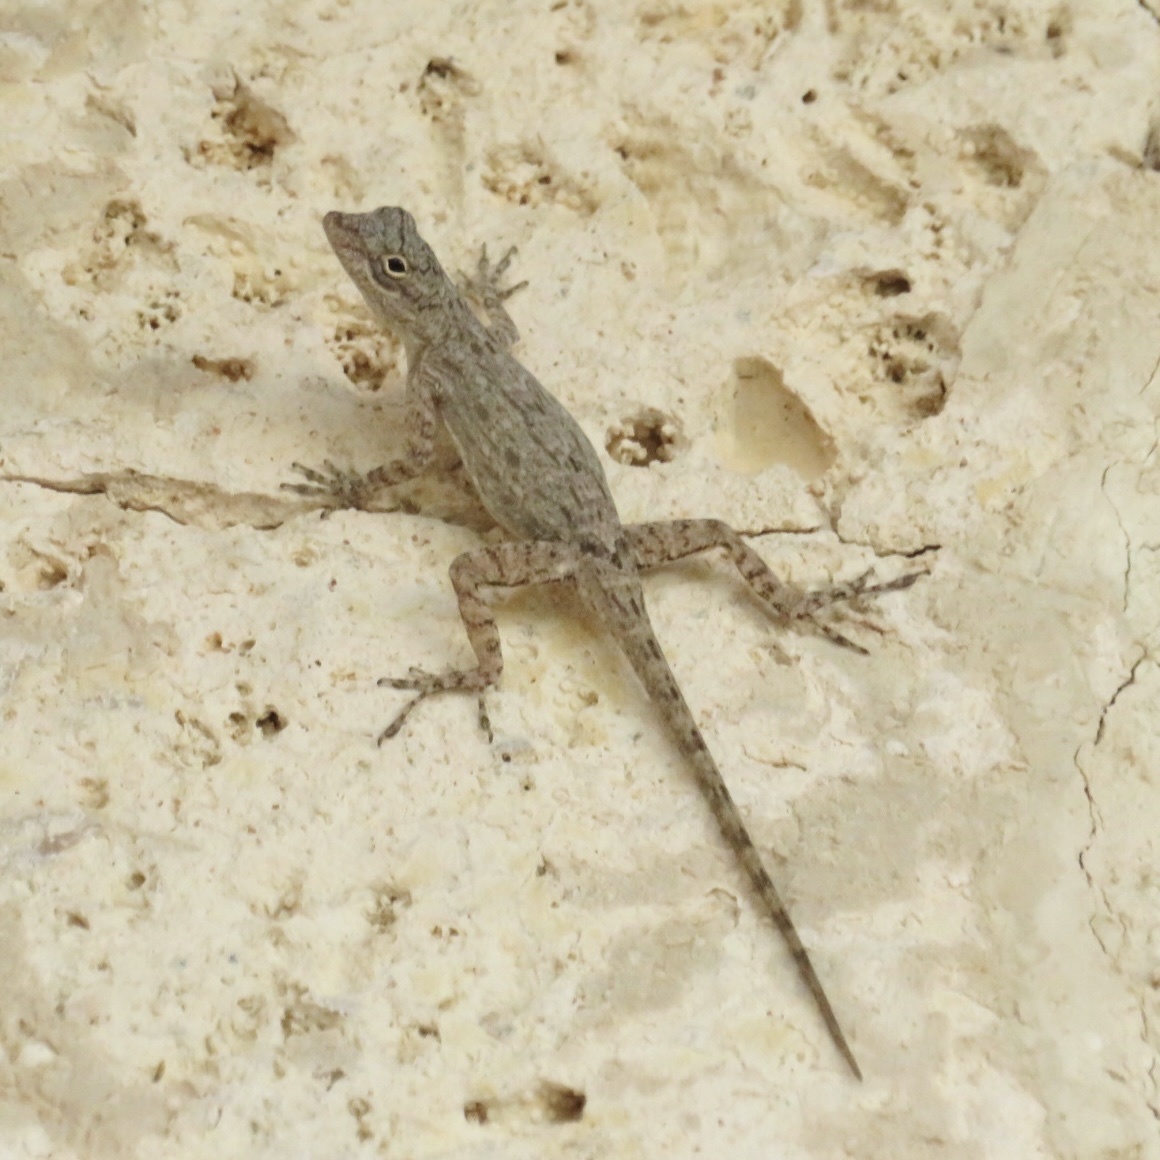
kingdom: Animalia
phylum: Chordata
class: Squamata
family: Dactyloidae
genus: Anolis
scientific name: Anolis properus
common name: Bark anole
